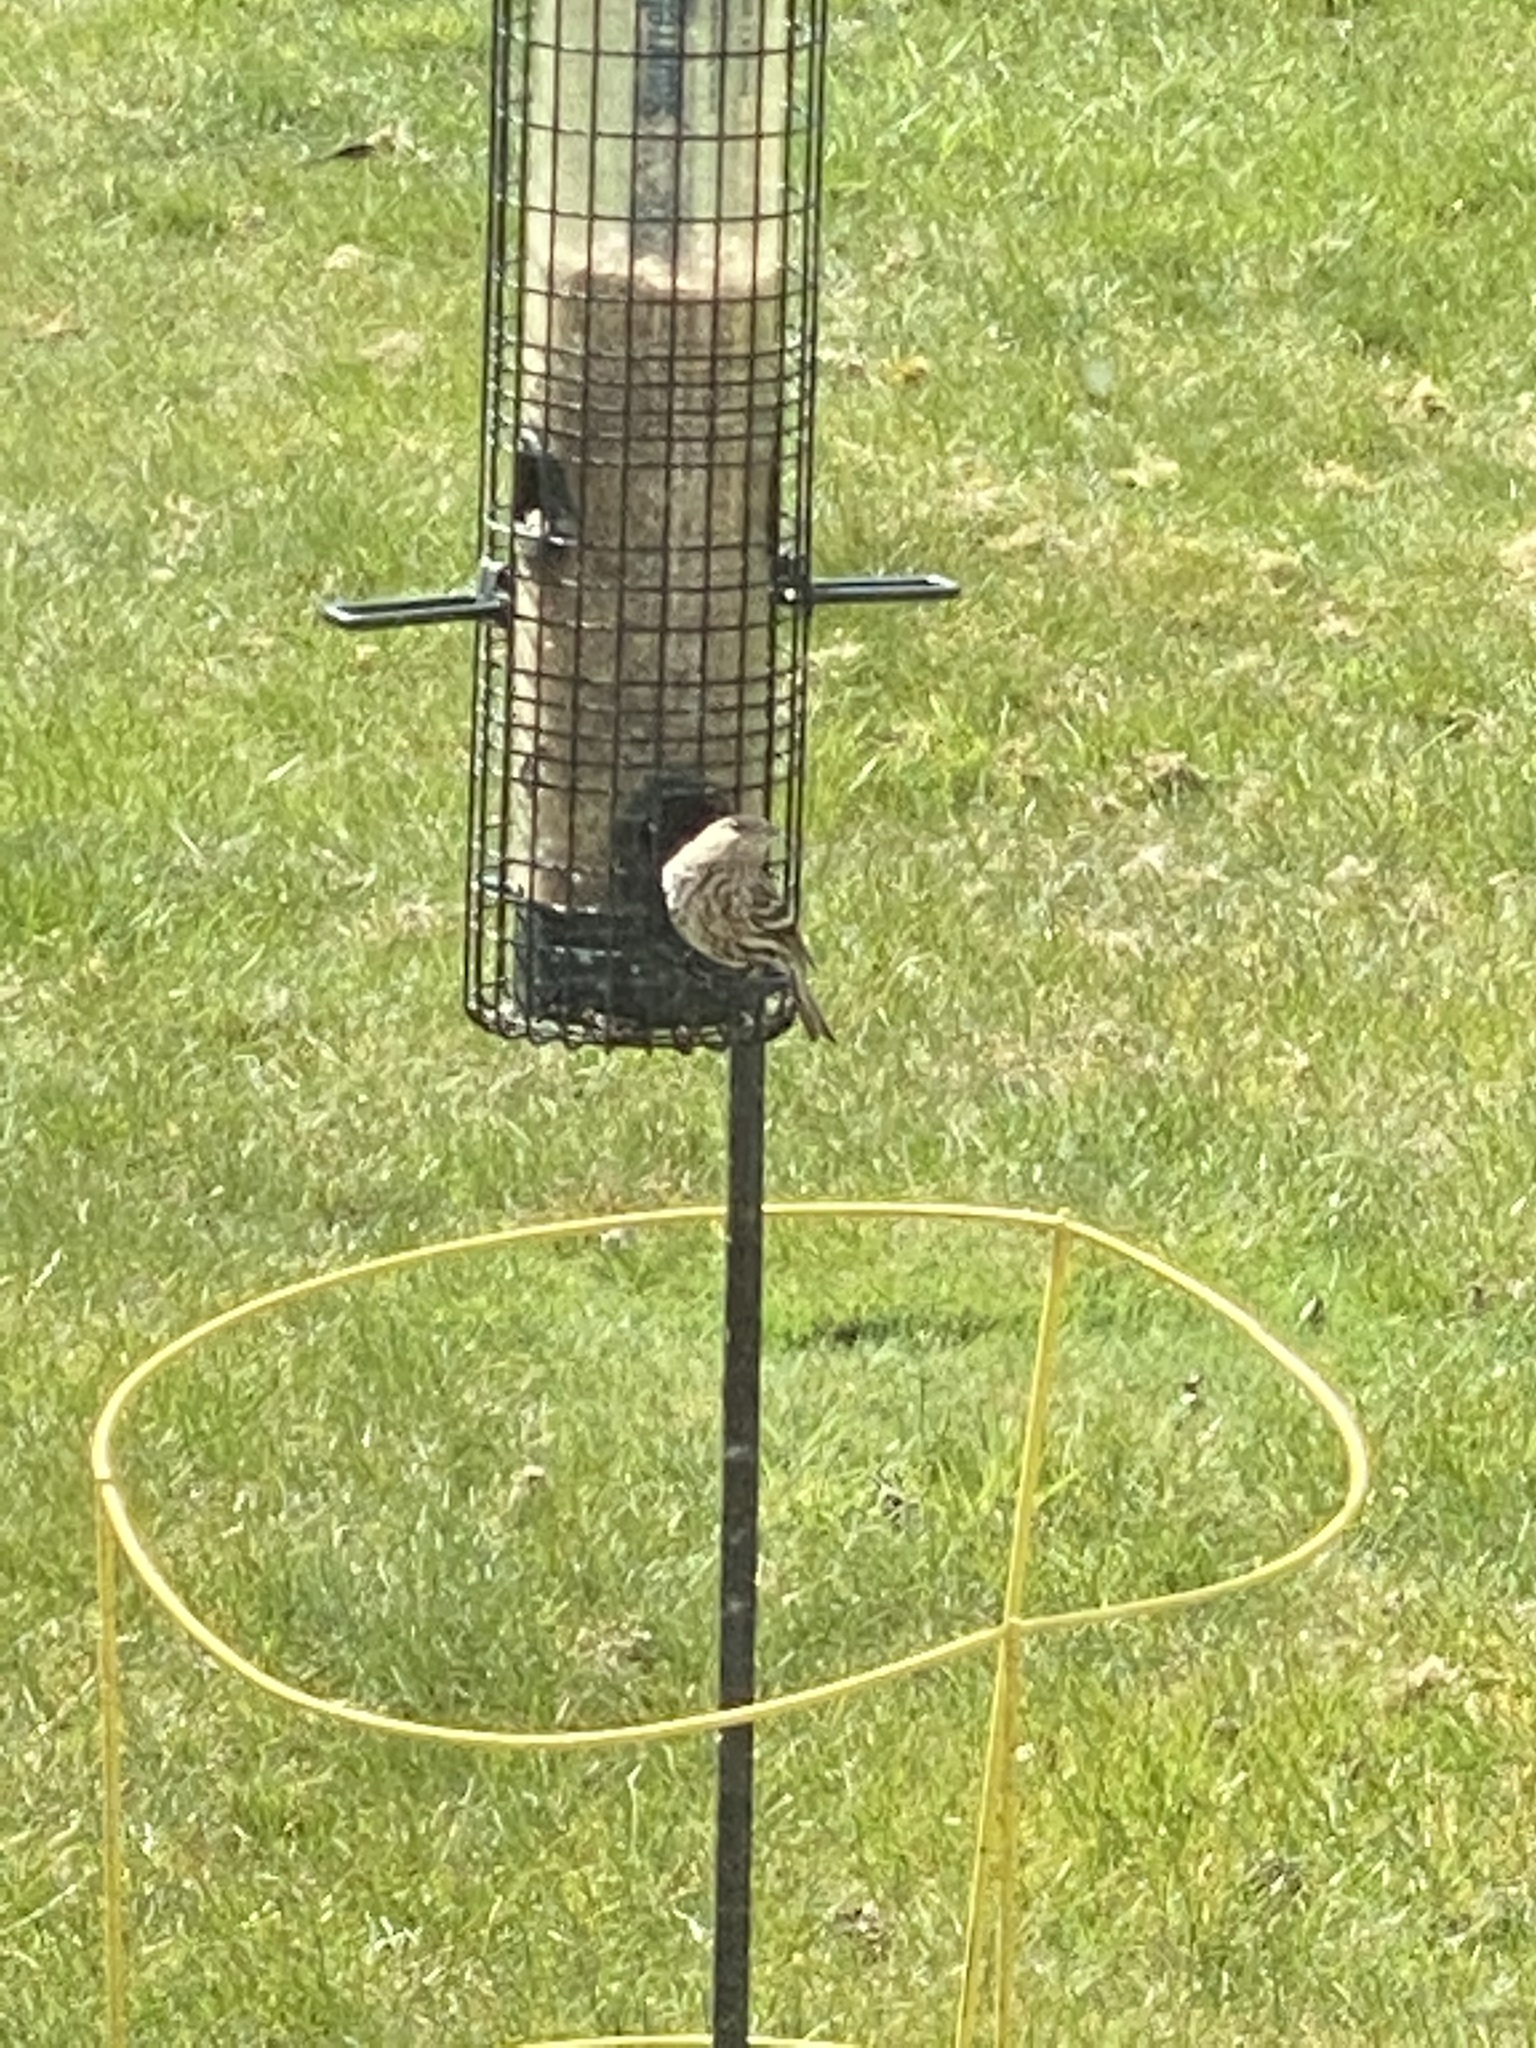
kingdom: Animalia
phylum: Chordata
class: Aves
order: Passeriformes
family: Fringillidae
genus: Spinus
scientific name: Spinus pinus
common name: Pine siskin
